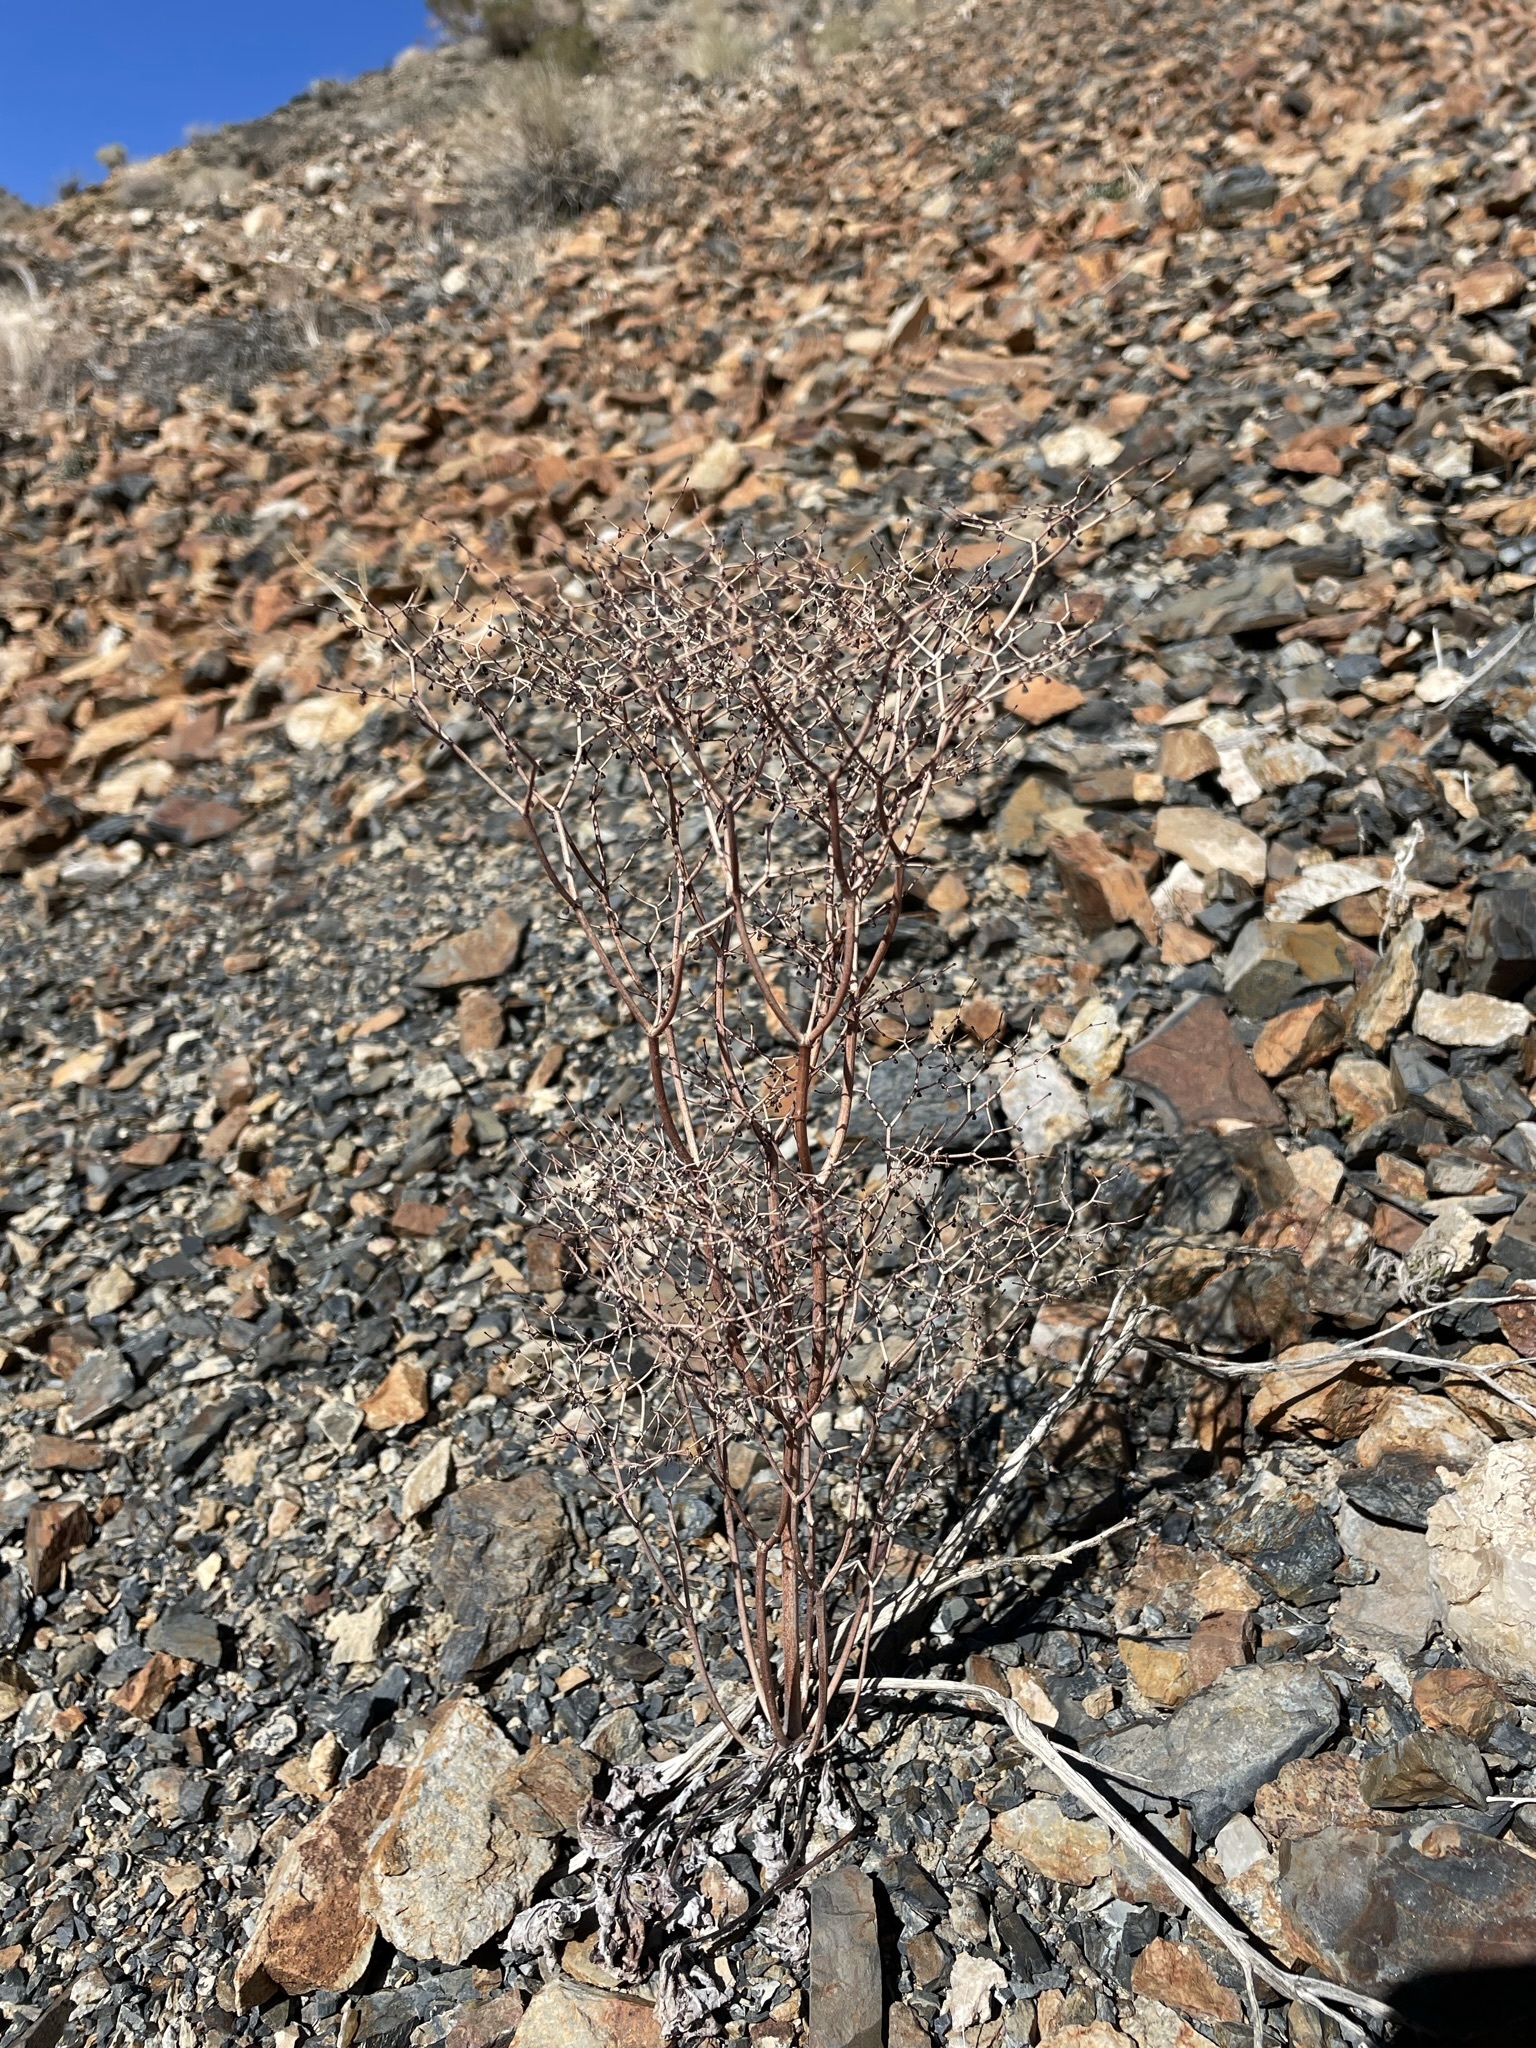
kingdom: Plantae
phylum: Tracheophyta
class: Magnoliopsida
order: Caryophyllales
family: Polygonaceae
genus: Eriogonum
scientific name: Eriogonum rixfordii
